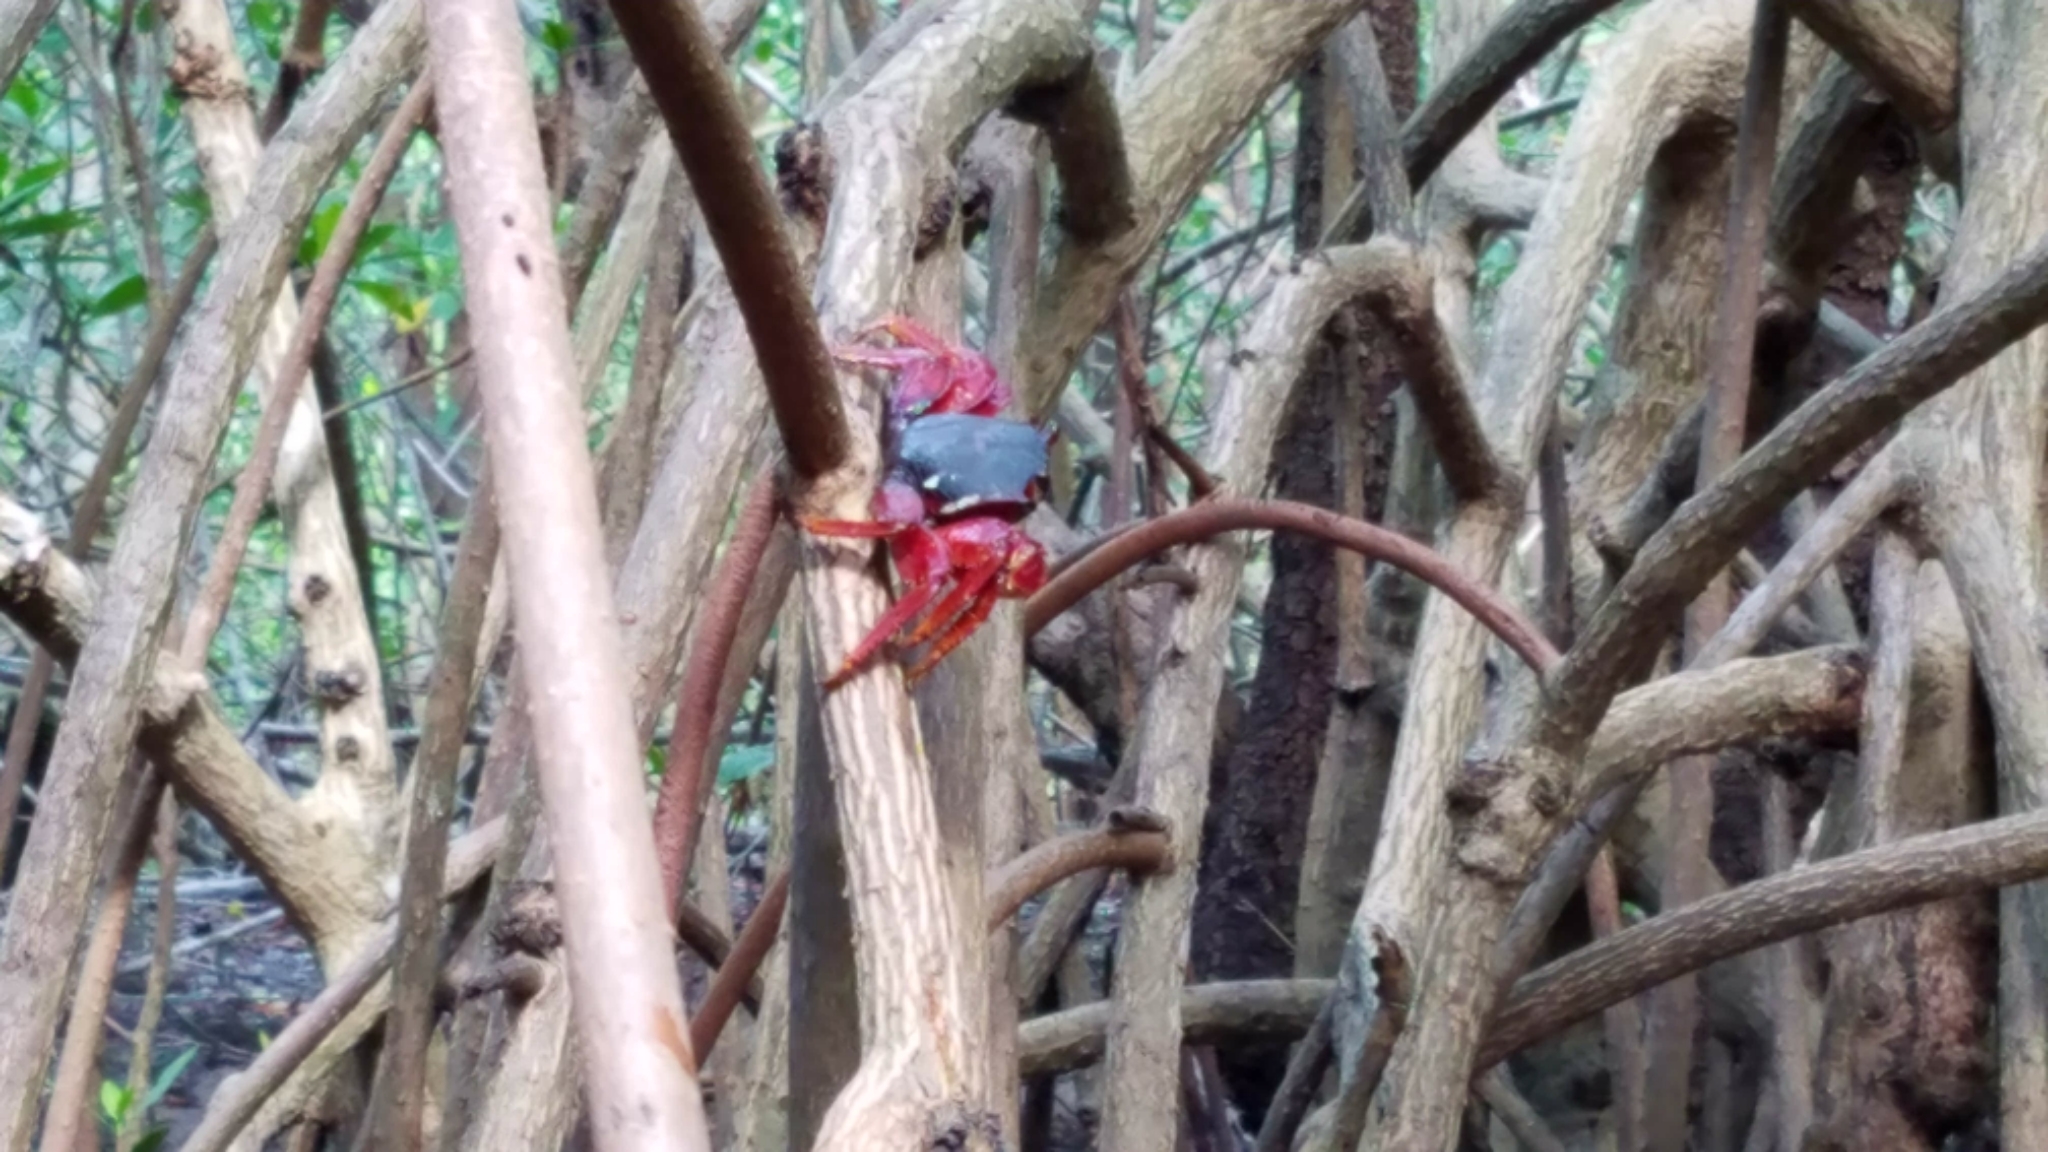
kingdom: Animalia
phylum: Arthropoda
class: Malacostraca
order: Decapoda
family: Grapsidae
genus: Goniopsis
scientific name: Goniopsis cruentata
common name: Mangrove crab
